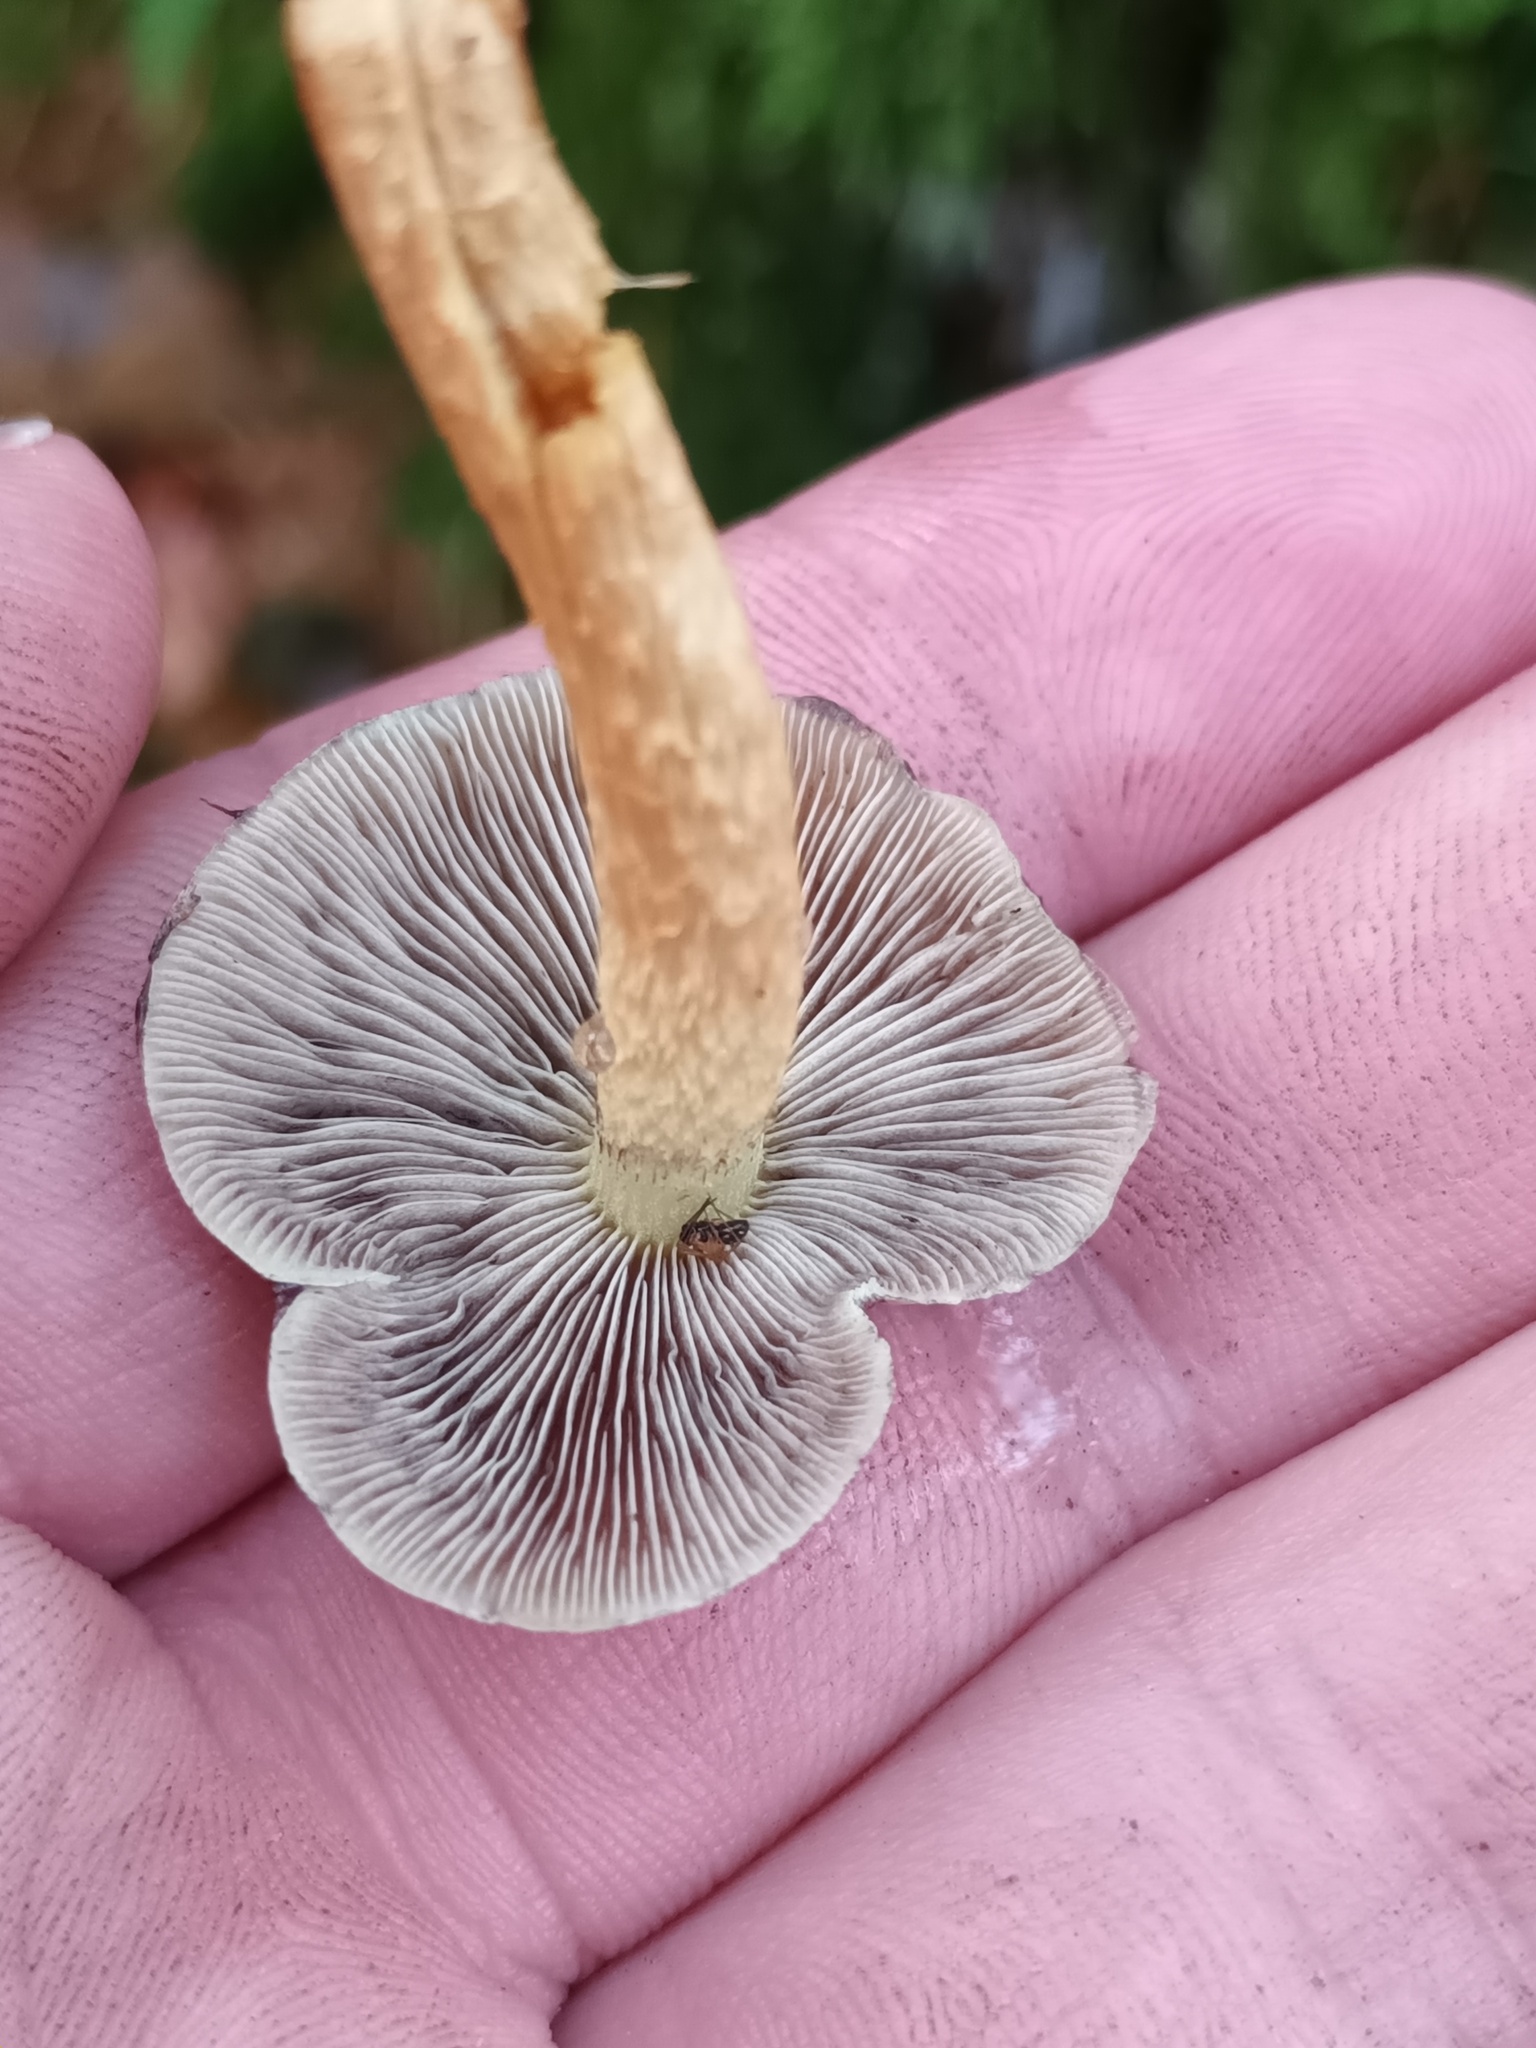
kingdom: Fungi
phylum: Basidiomycota
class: Agaricomycetes
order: Agaricales
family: Strophariaceae
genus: Hypholoma
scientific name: Hypholoma fasciculare
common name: Sulphur tuft
